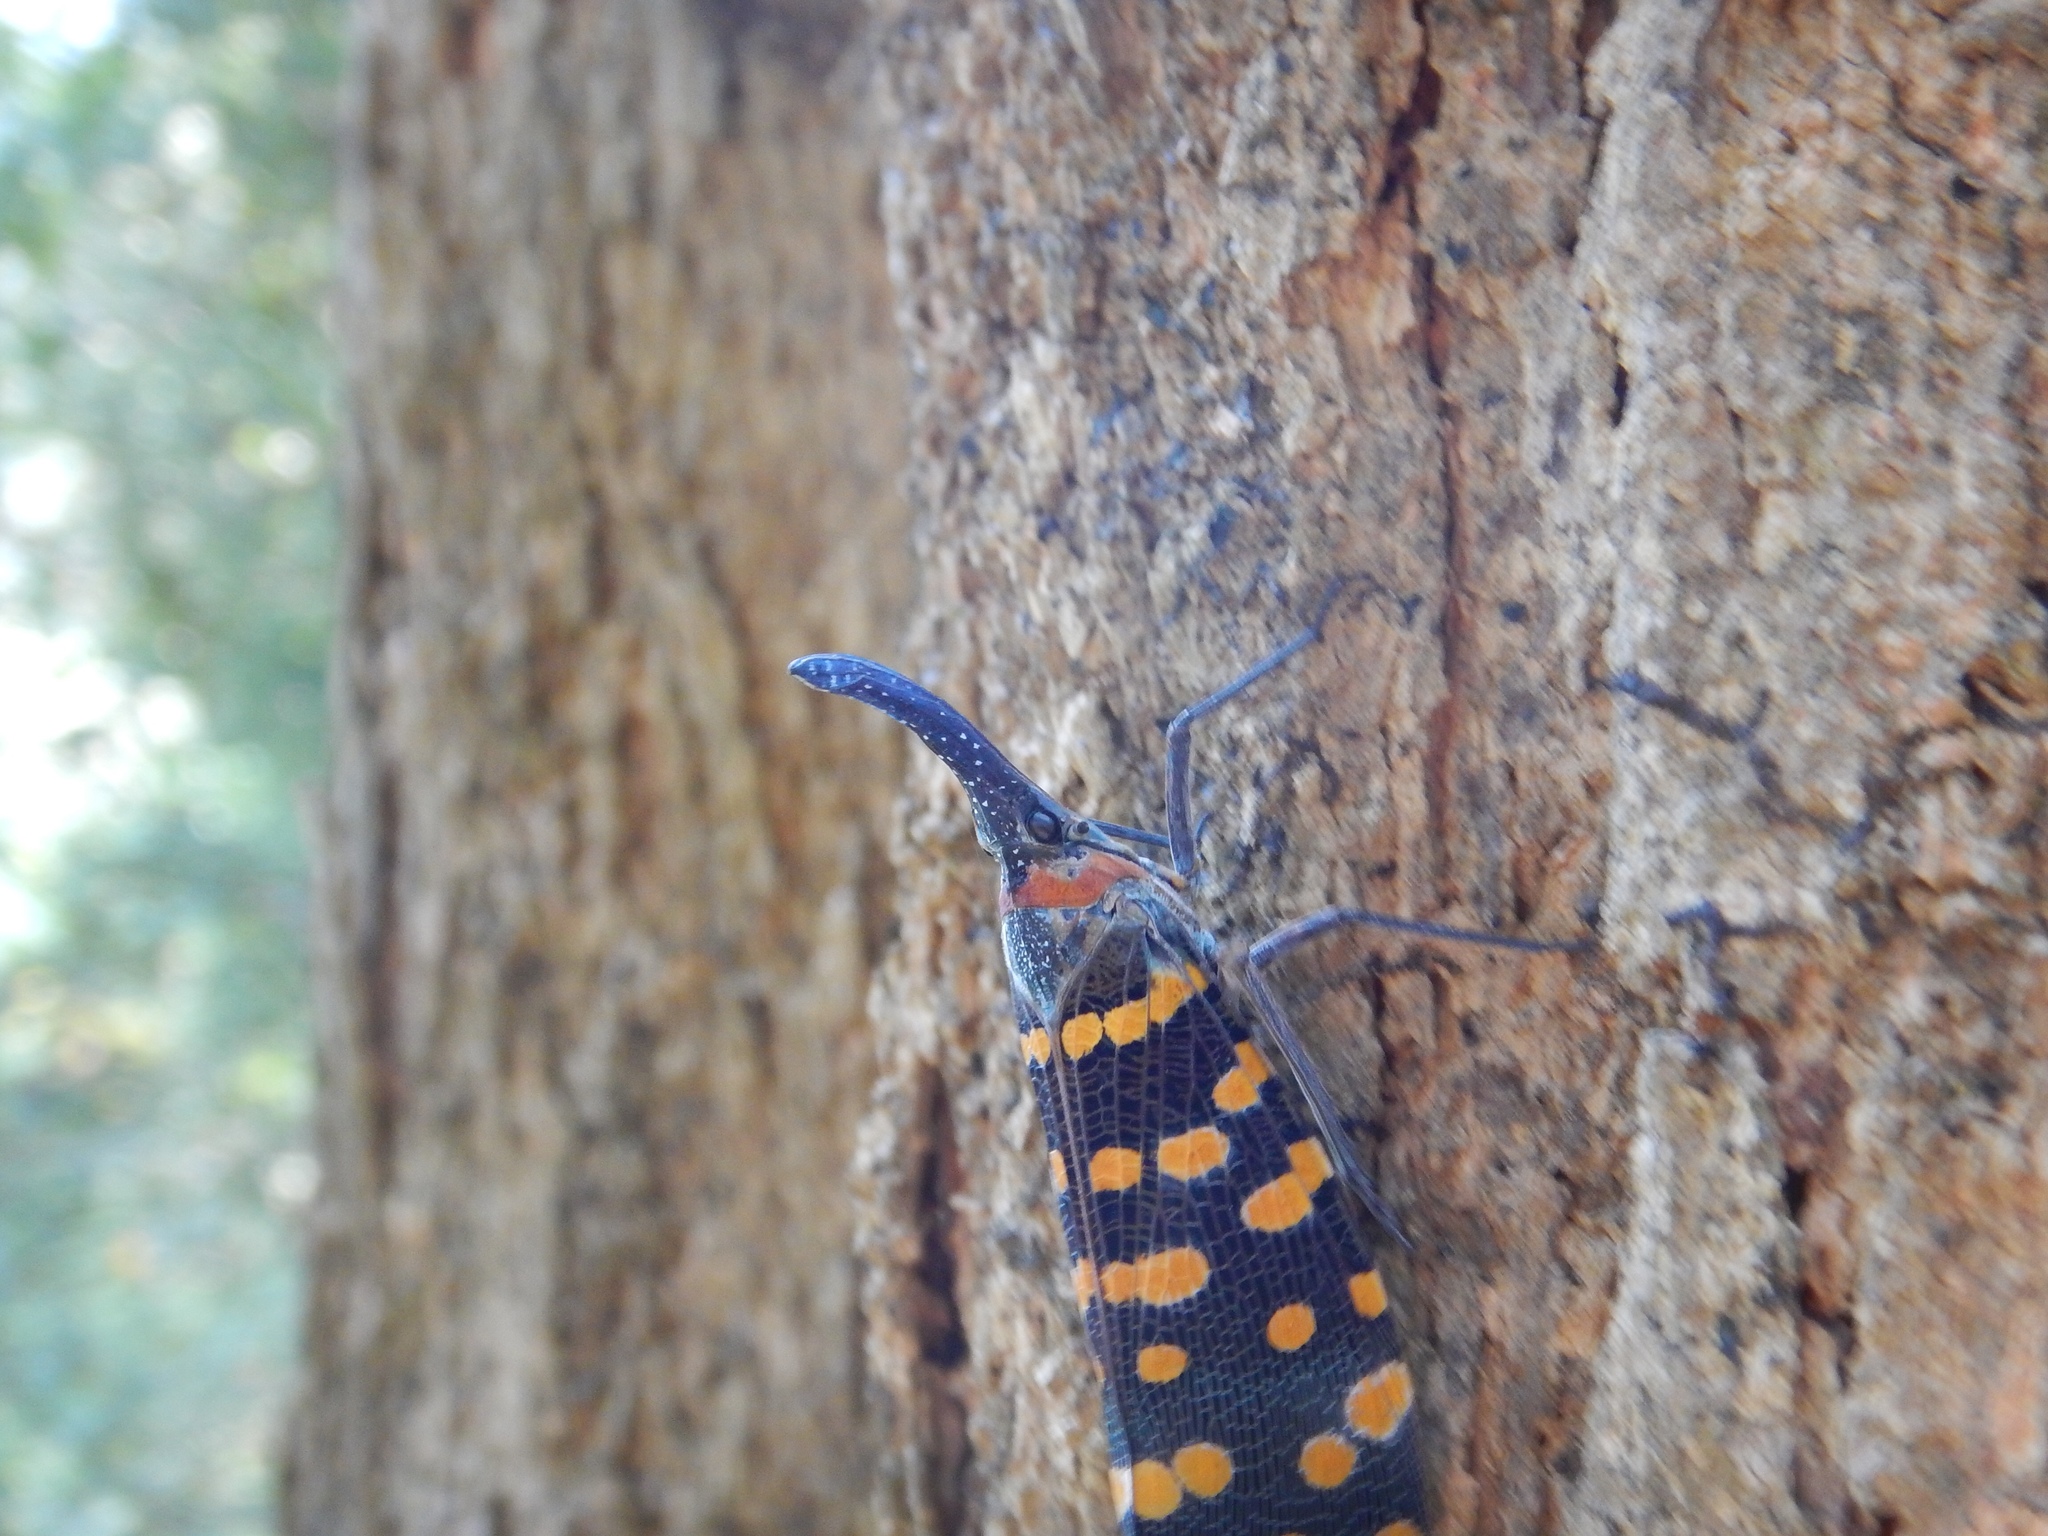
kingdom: Animalia
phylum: Arthropoda
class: Insecta
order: Hemiptera
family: Fulgoridae
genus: Pyrops
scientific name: Pyrops
